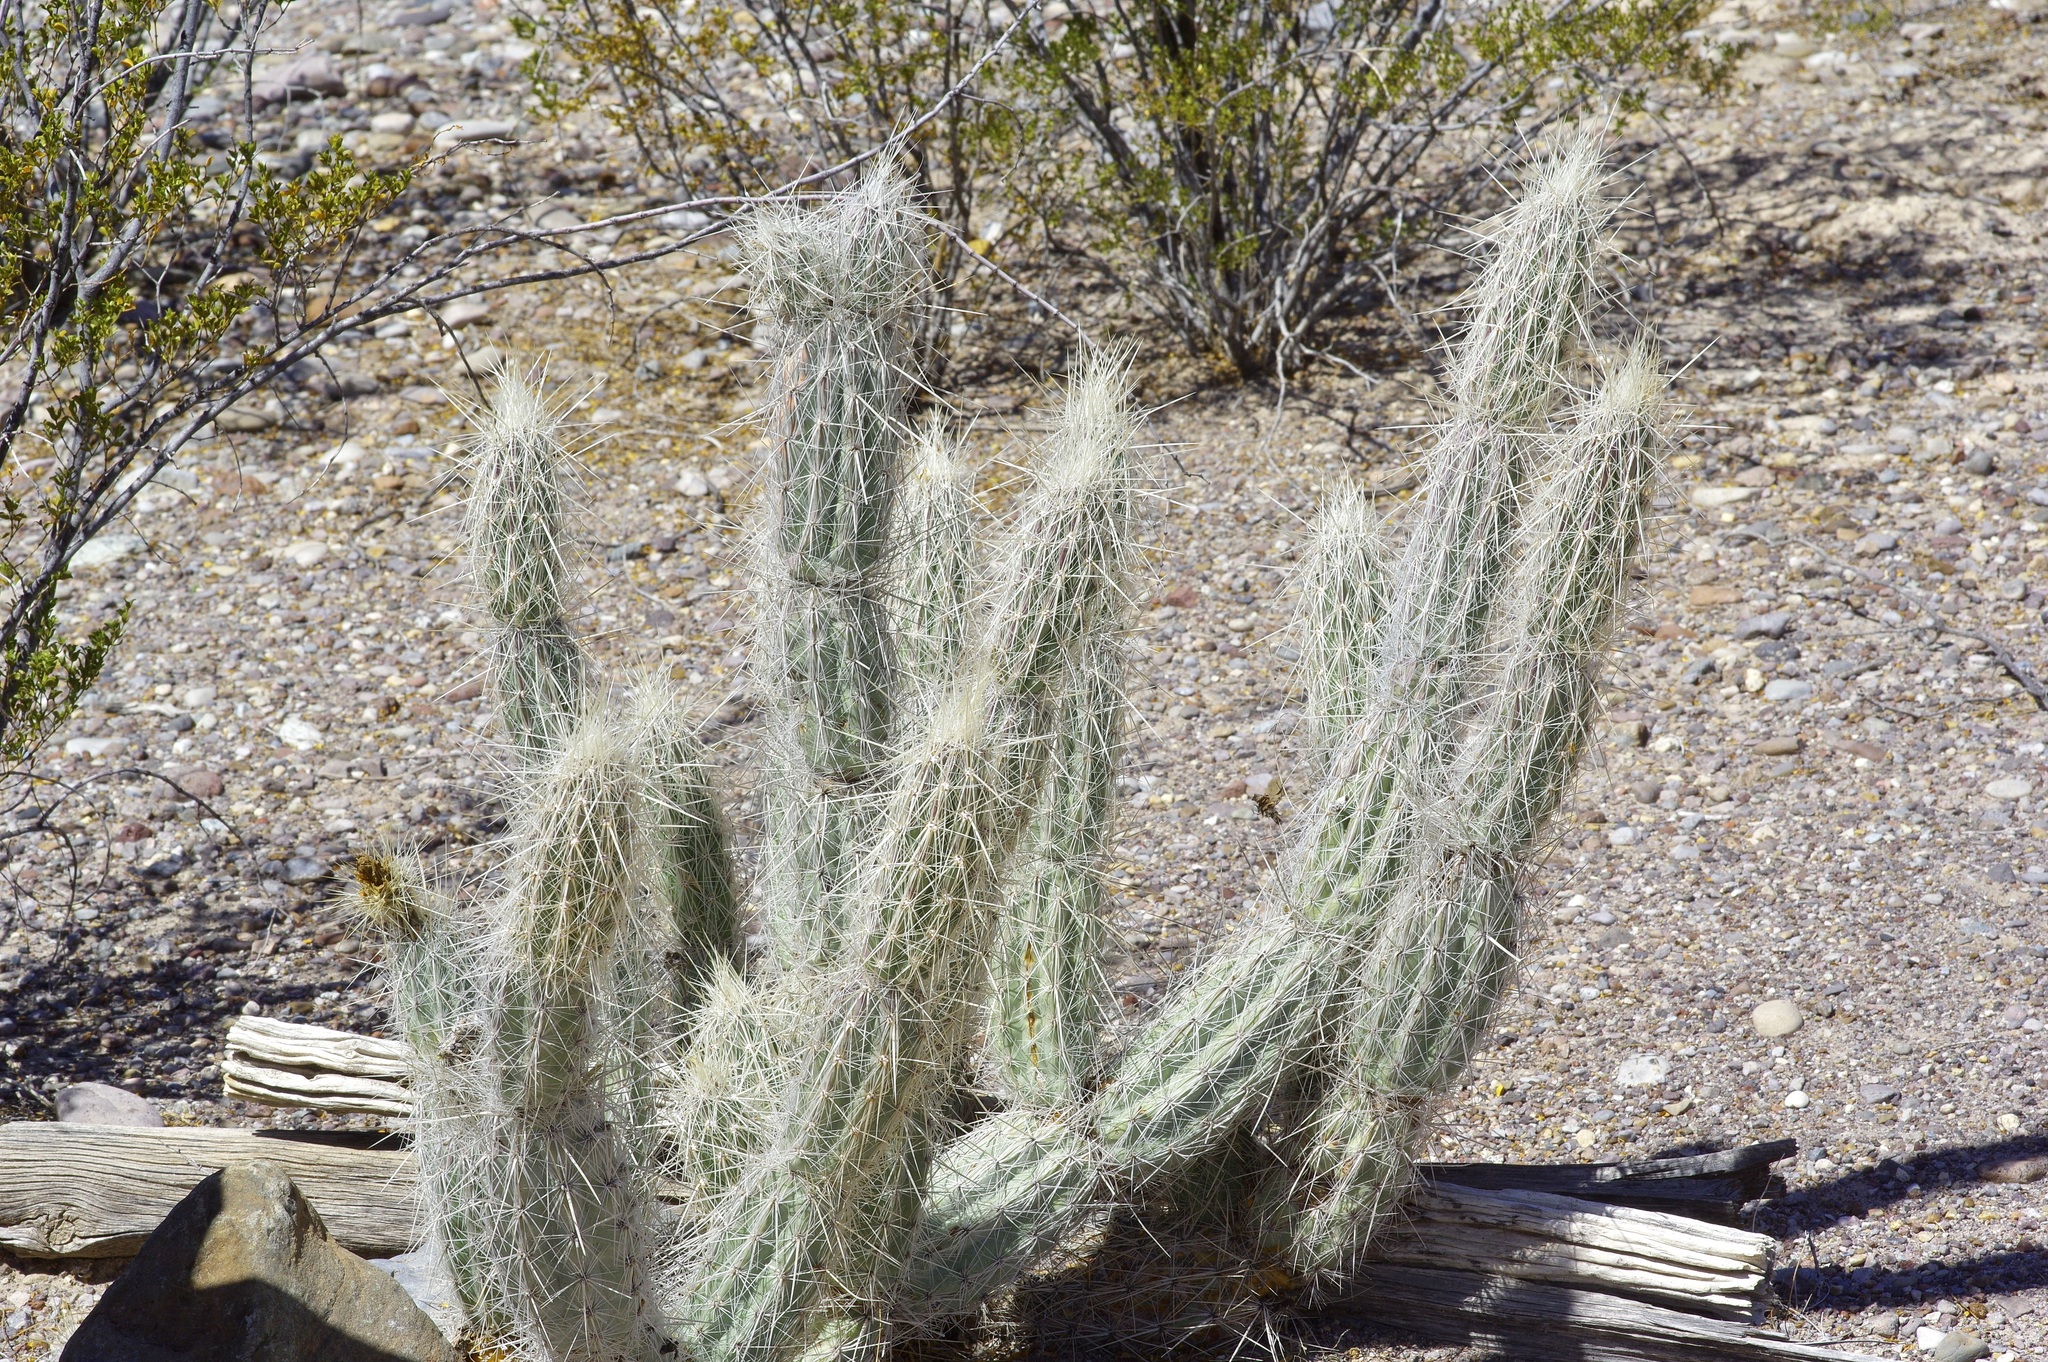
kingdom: Plantae
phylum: Tracheophyta
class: Magnoliopsida
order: Caryophyllales
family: Cactaceae
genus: Grusonia
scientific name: Grusonia bradtiana
